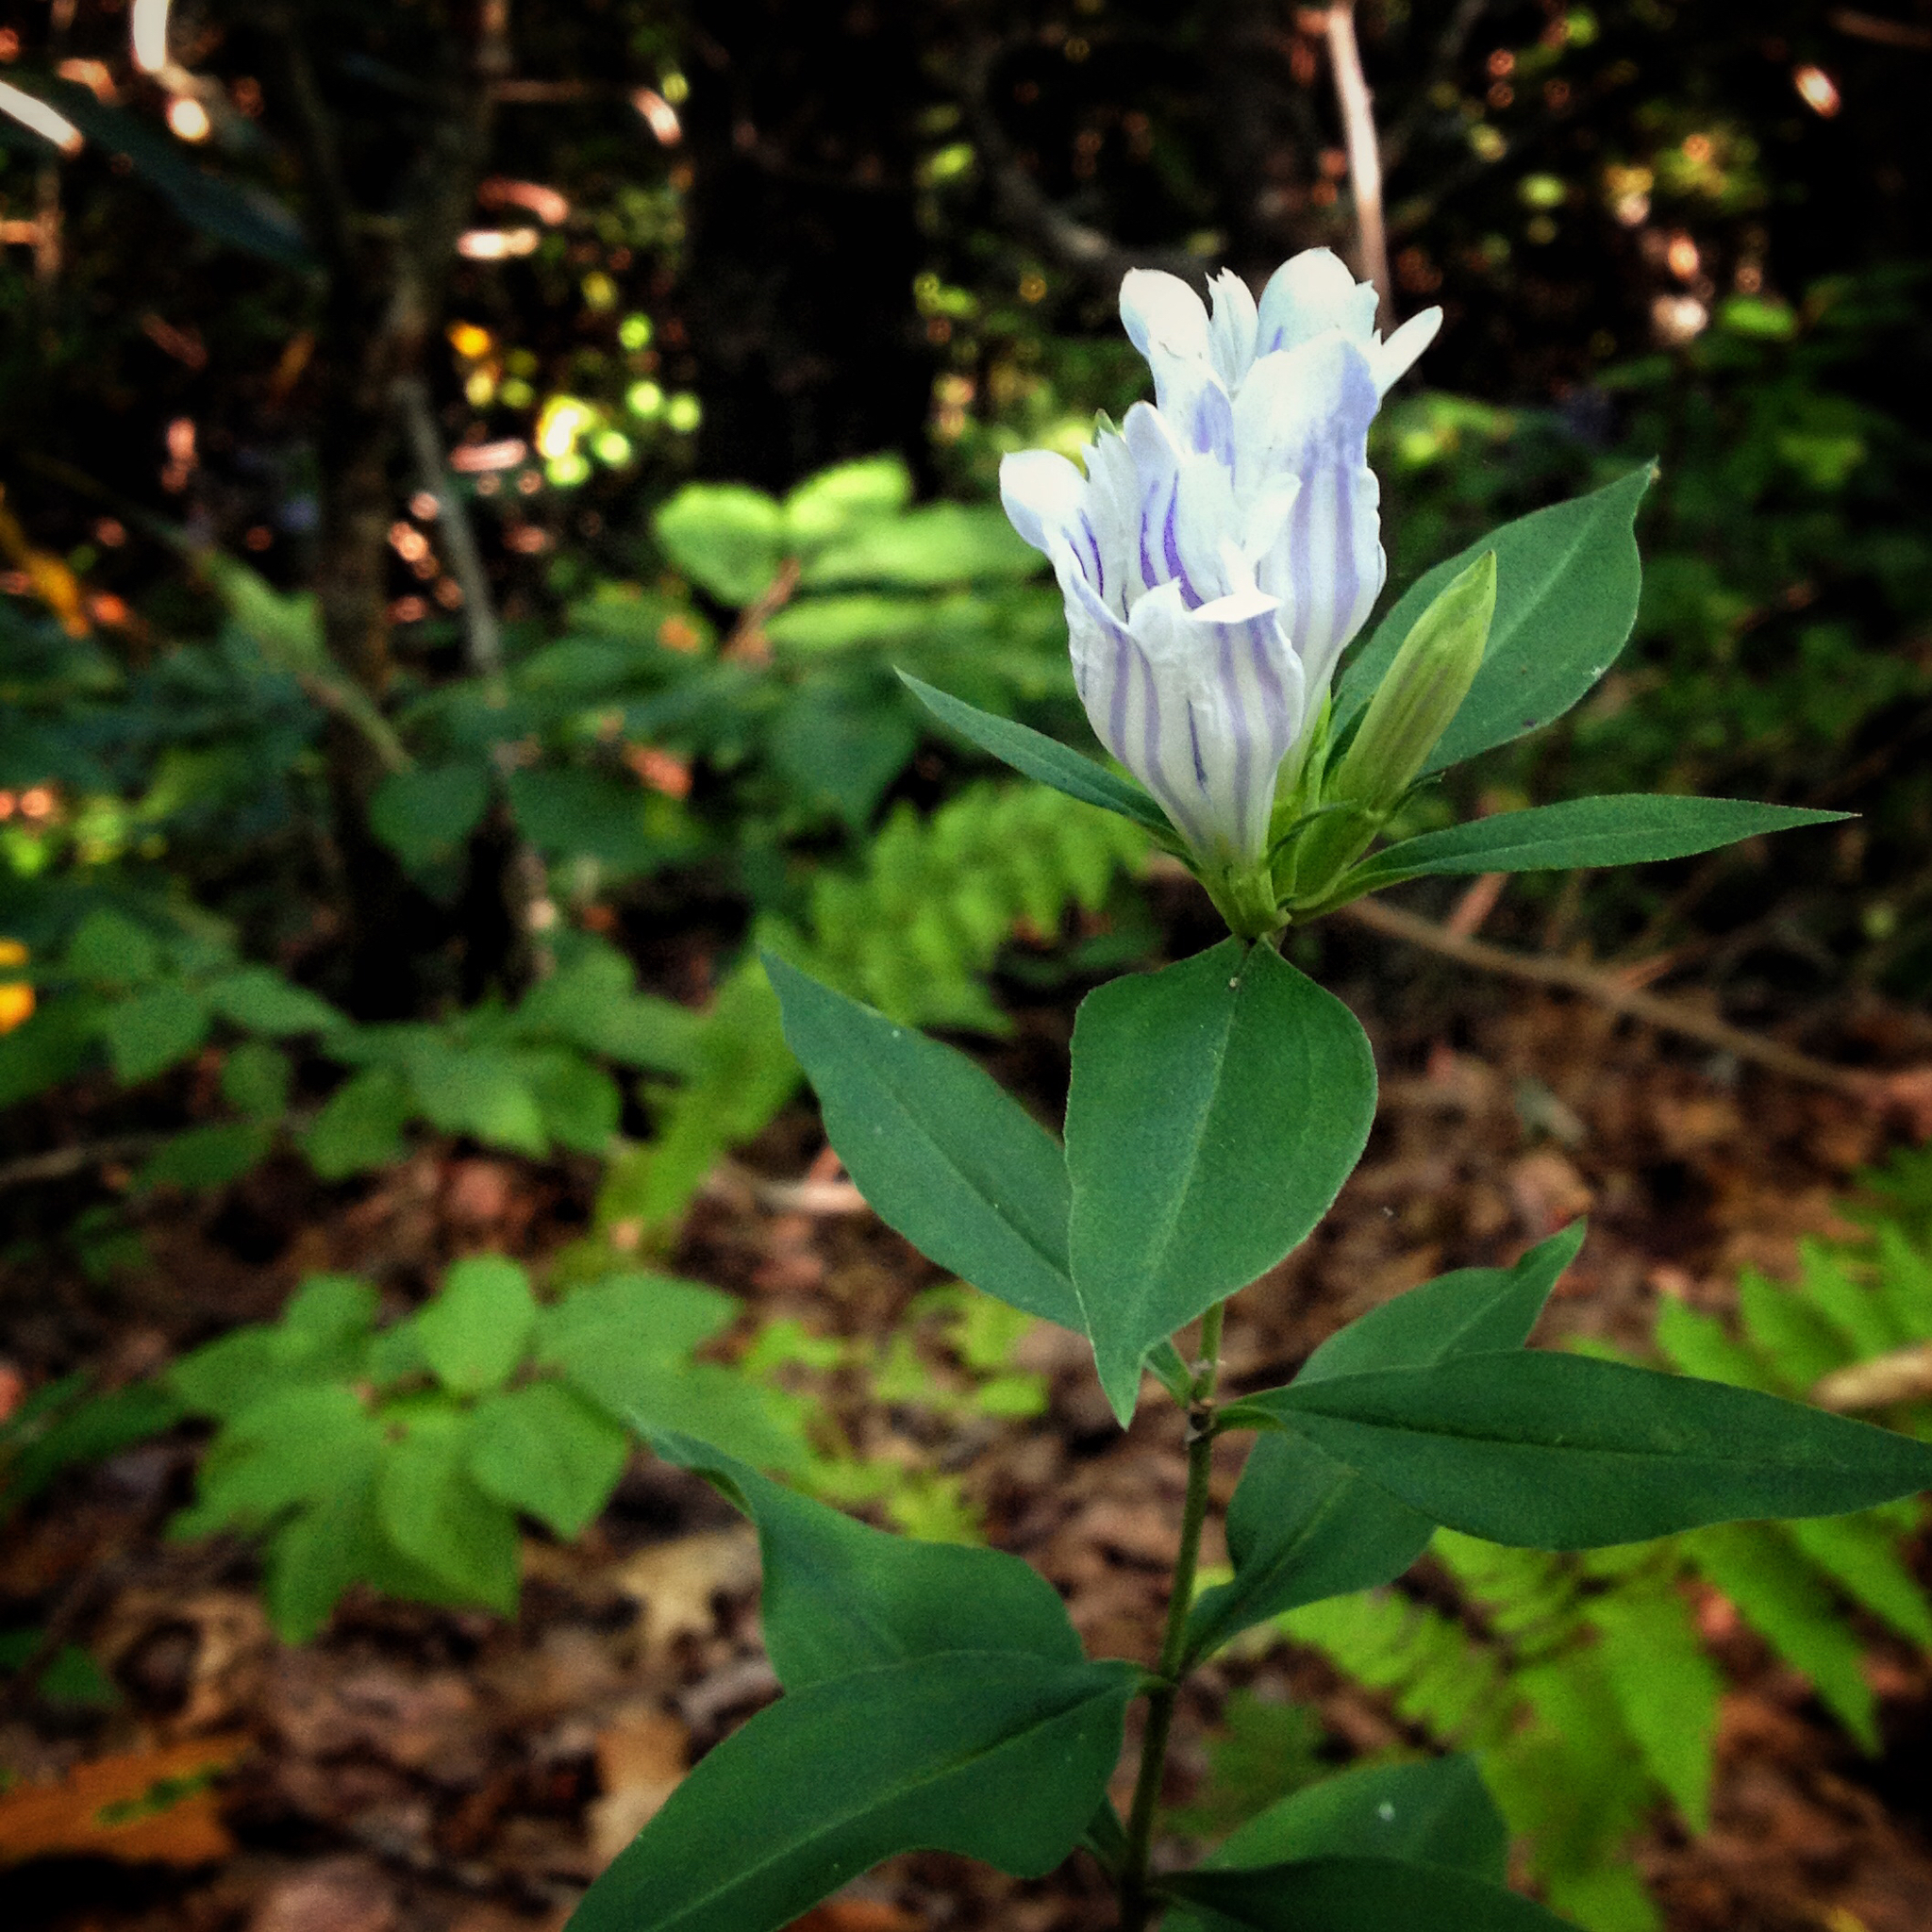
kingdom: Plantae
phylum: Tracheophyta
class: Magnoliopsida
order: Gentianales
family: Gentianaceae
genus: Gentiana
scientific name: Gentiana decora
